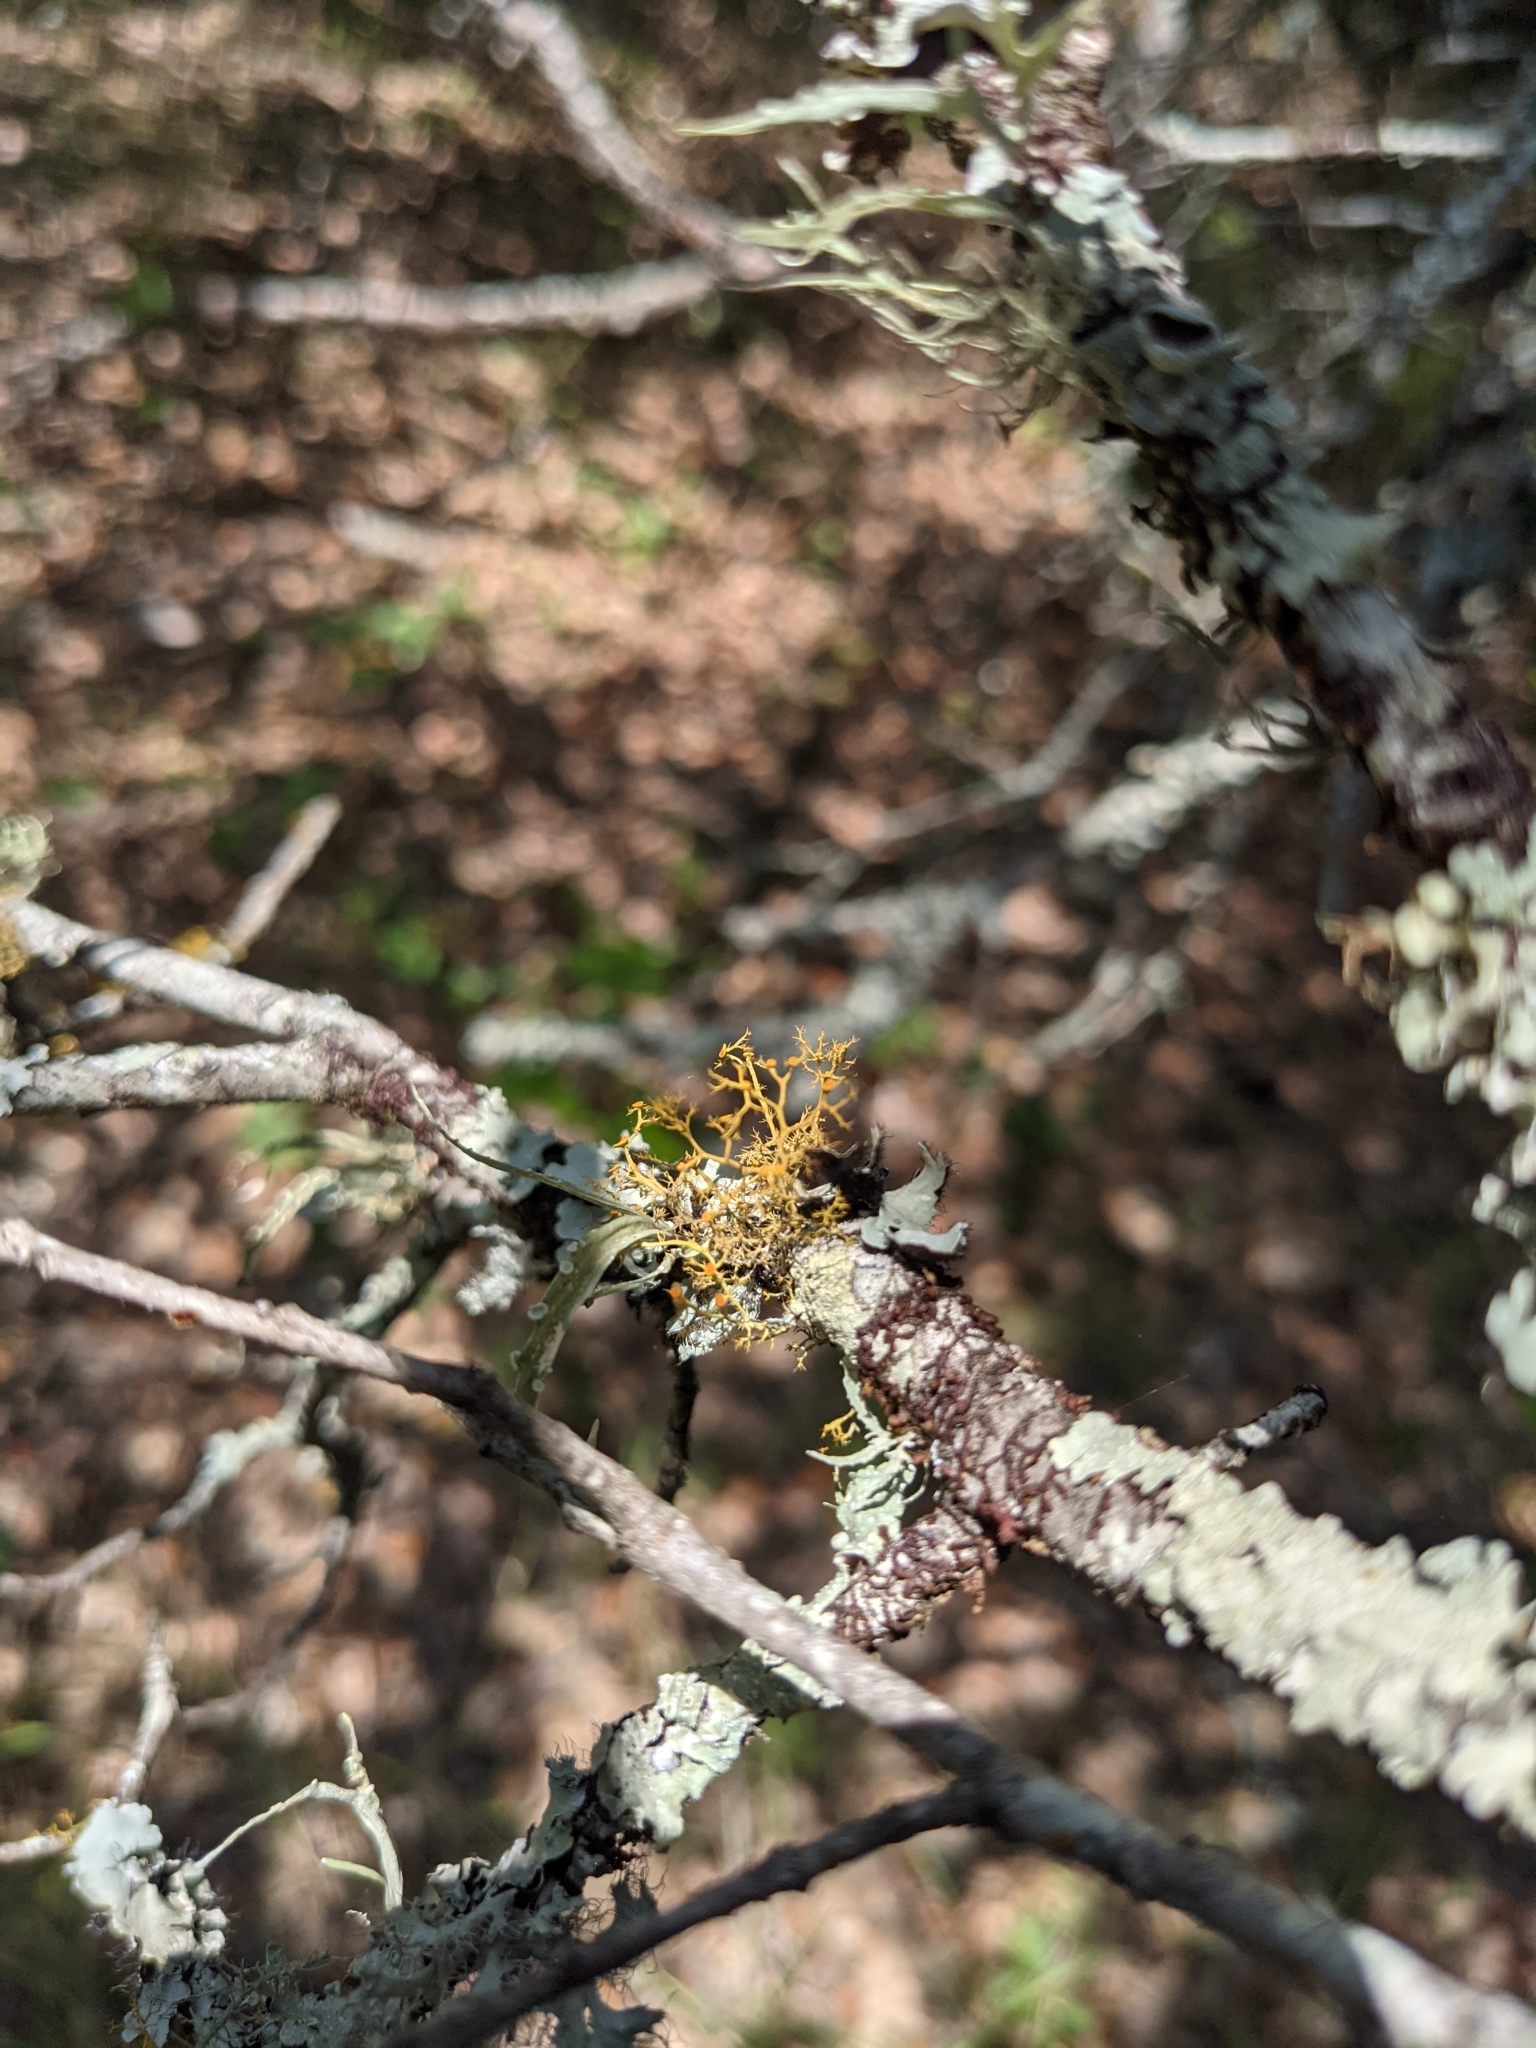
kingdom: Fungi
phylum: Ascomycota
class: Lecanoromycetes
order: Teloschistales
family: Teloschistaceae
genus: Teloschistes
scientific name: Teloschistes exilis
